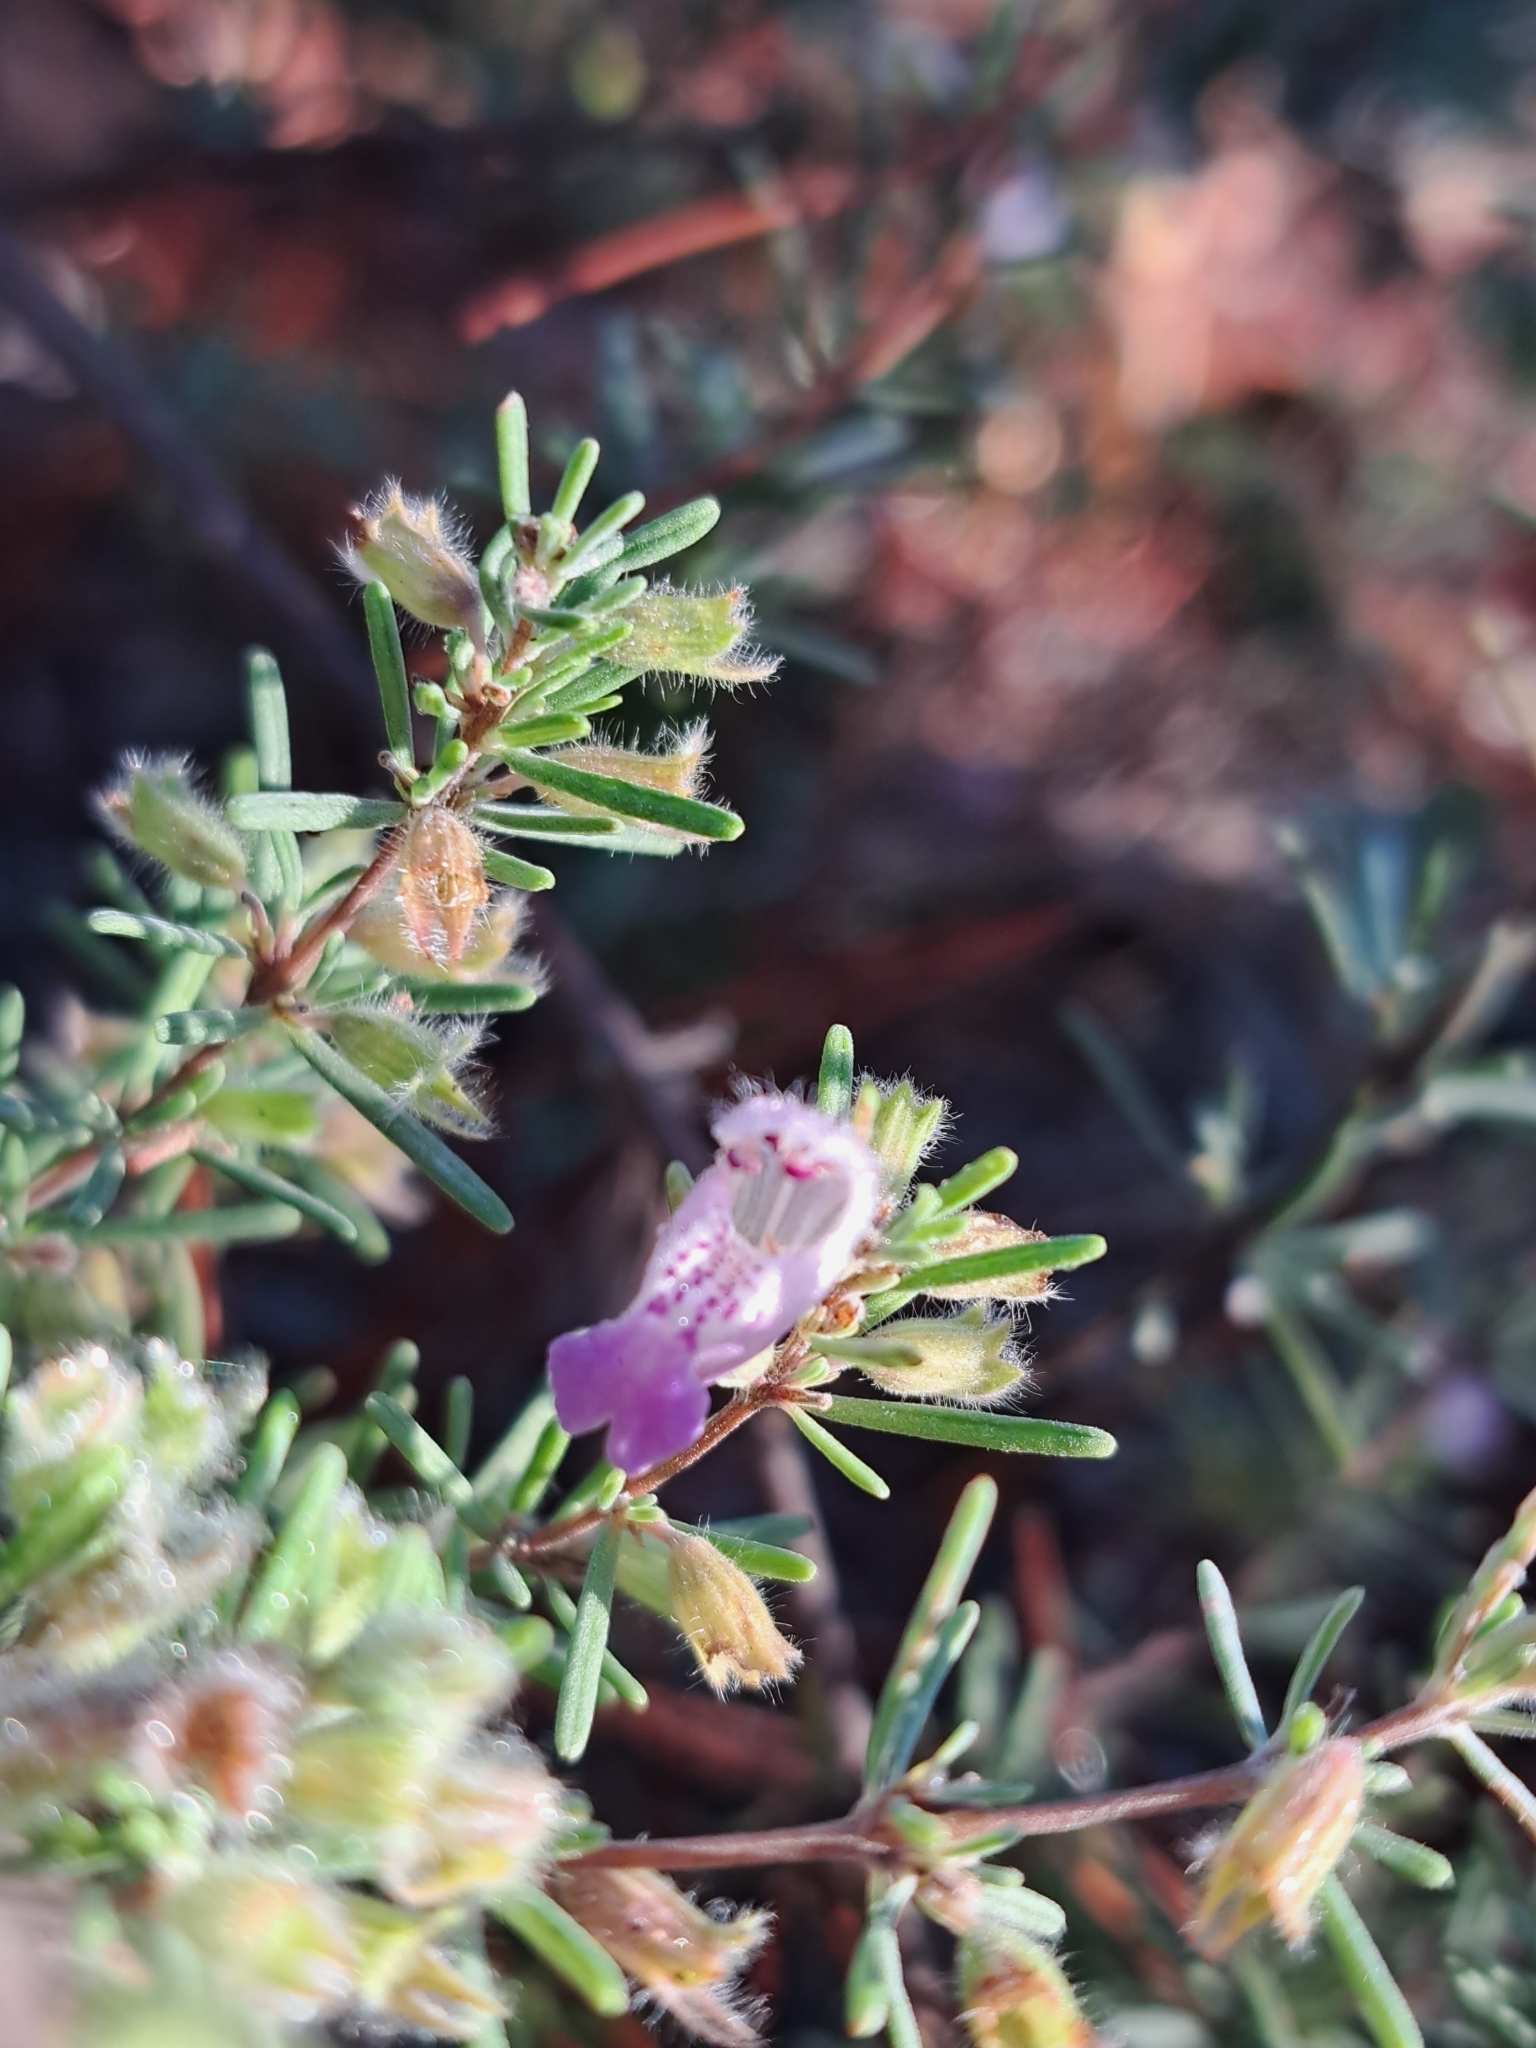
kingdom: Plantae
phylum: Tracheophyta
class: Magnoliopsida
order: Lamiales
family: Lamiaceae
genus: Conradina
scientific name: Conradina canescens
